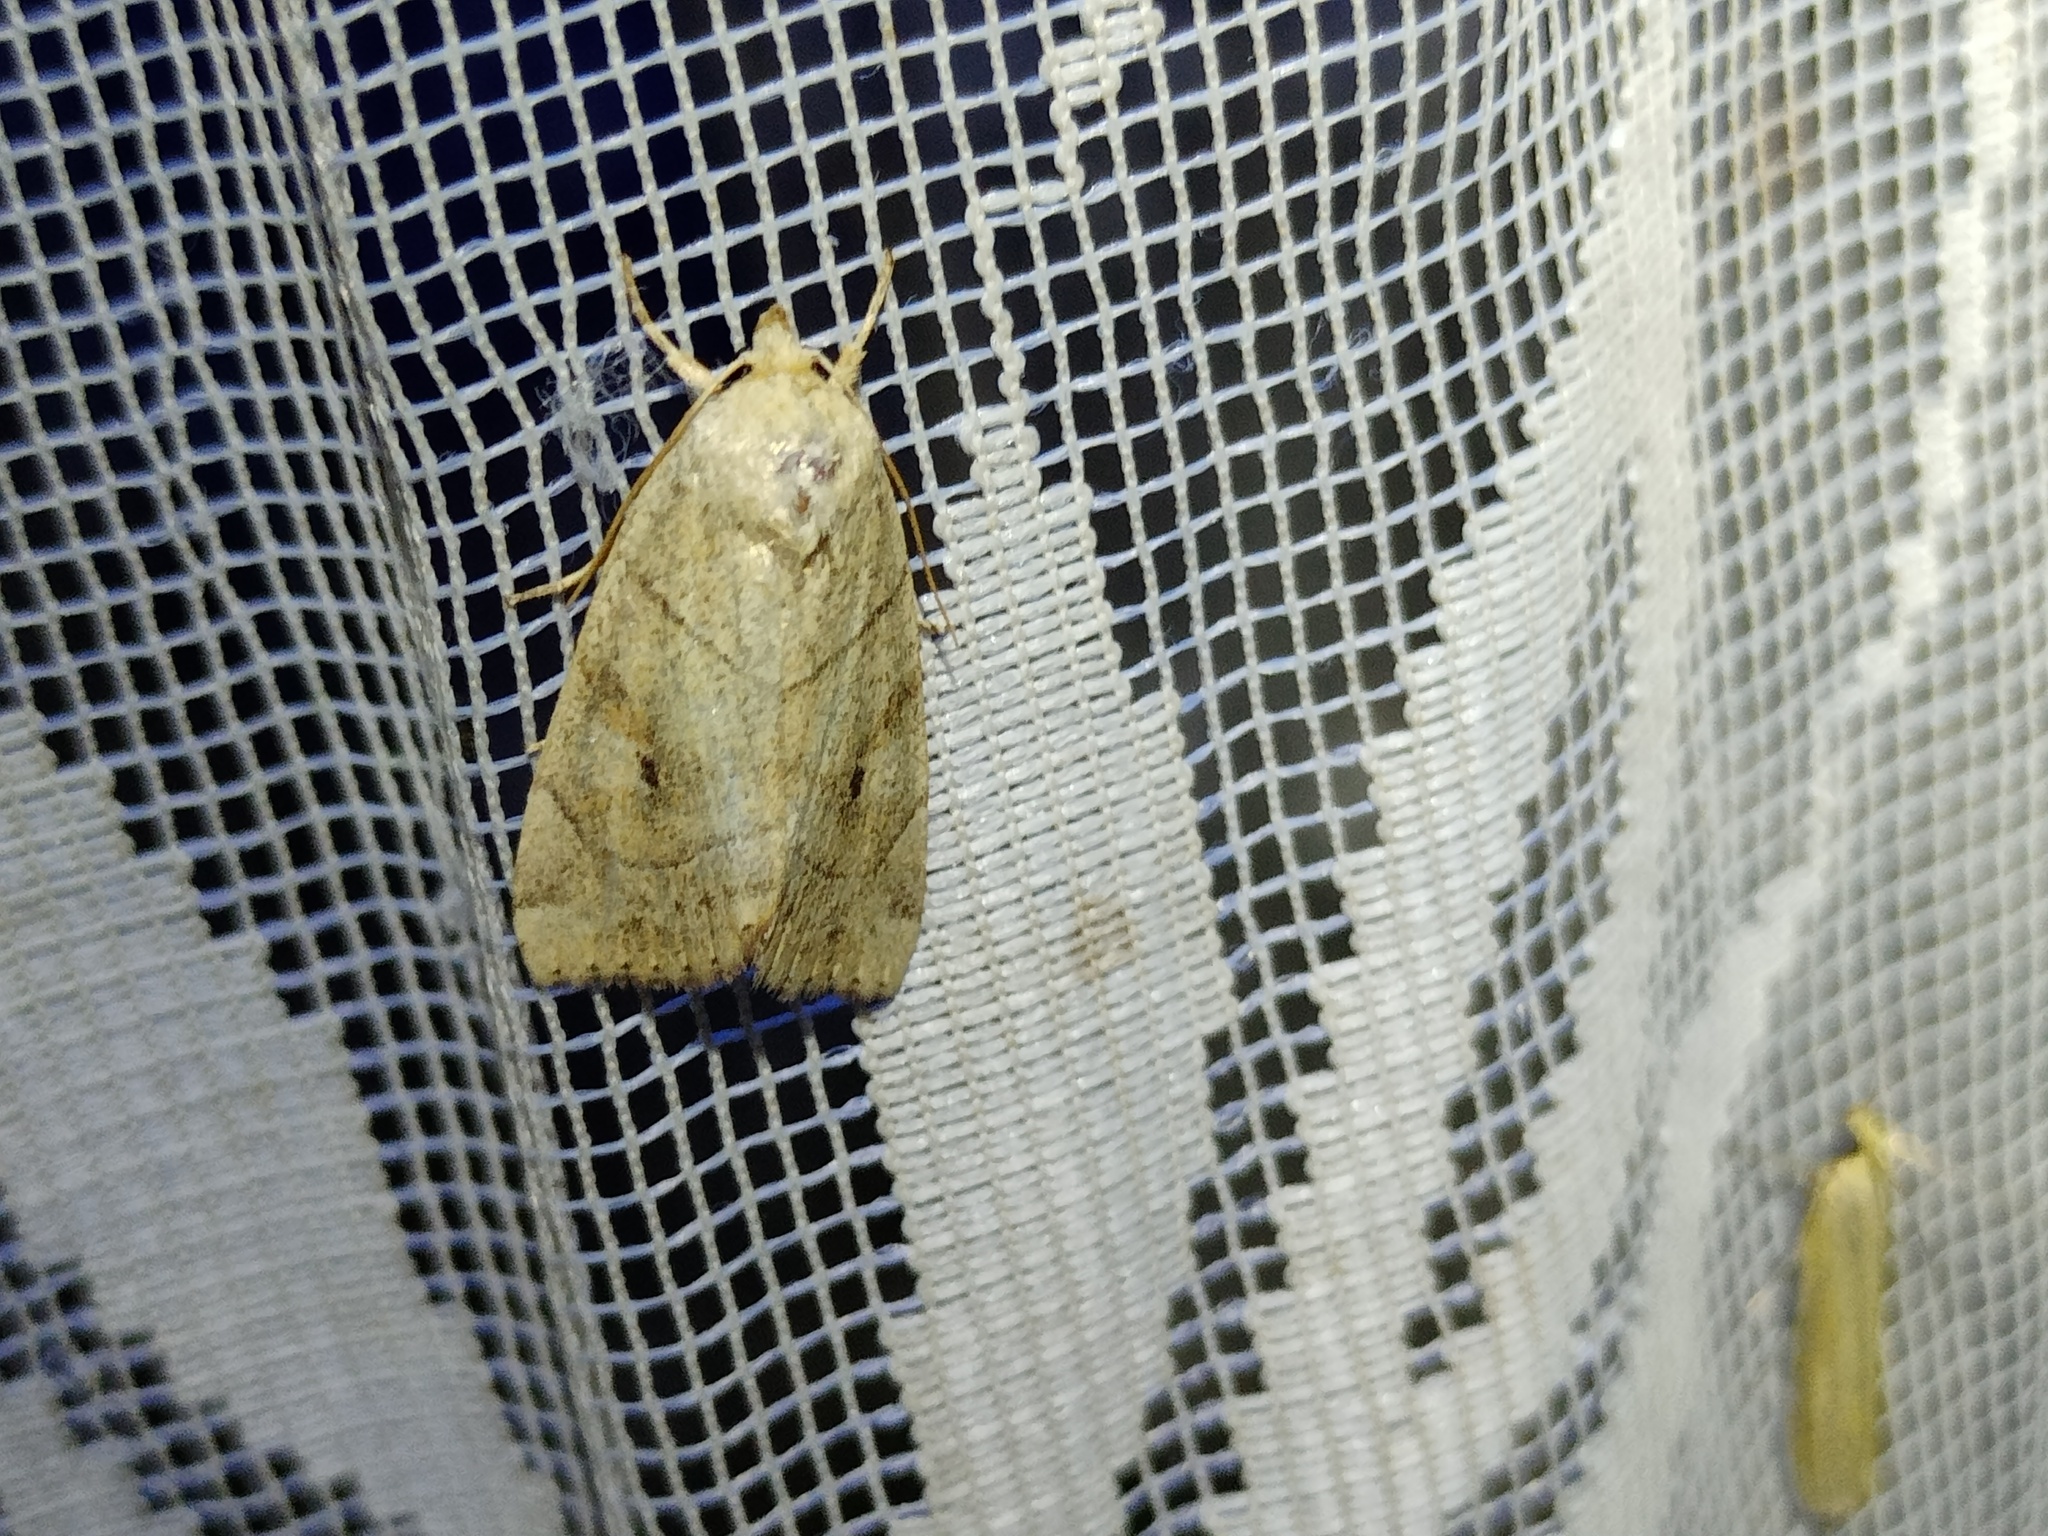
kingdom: Animalia
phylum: Arthropoda
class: Insecta
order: Lepidoptera
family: Noctuidae
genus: Cosmia
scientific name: Cosmia trapezina
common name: Dun-bar
